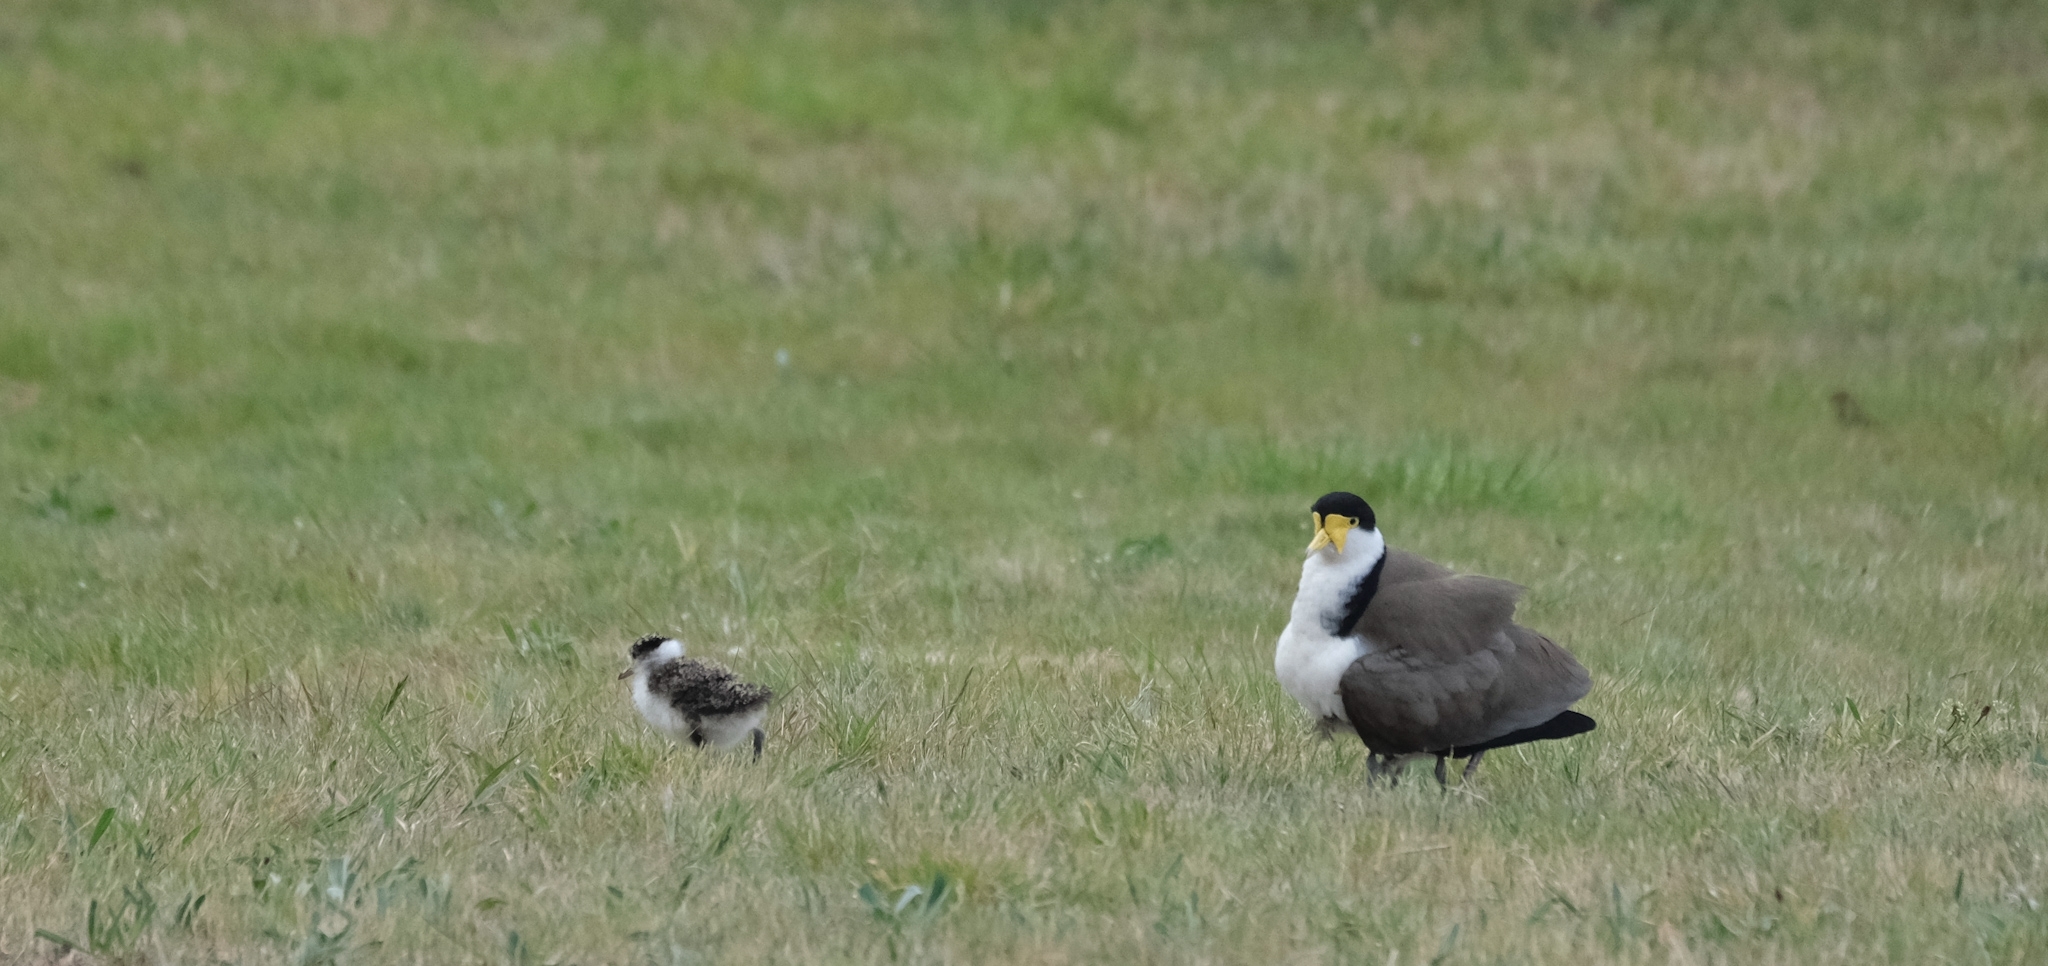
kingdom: Animalia
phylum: Chordata
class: Aves
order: Charadriiformes
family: Charadriidae
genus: Vanellus
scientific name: Vanellus miles
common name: Masked lapwing
